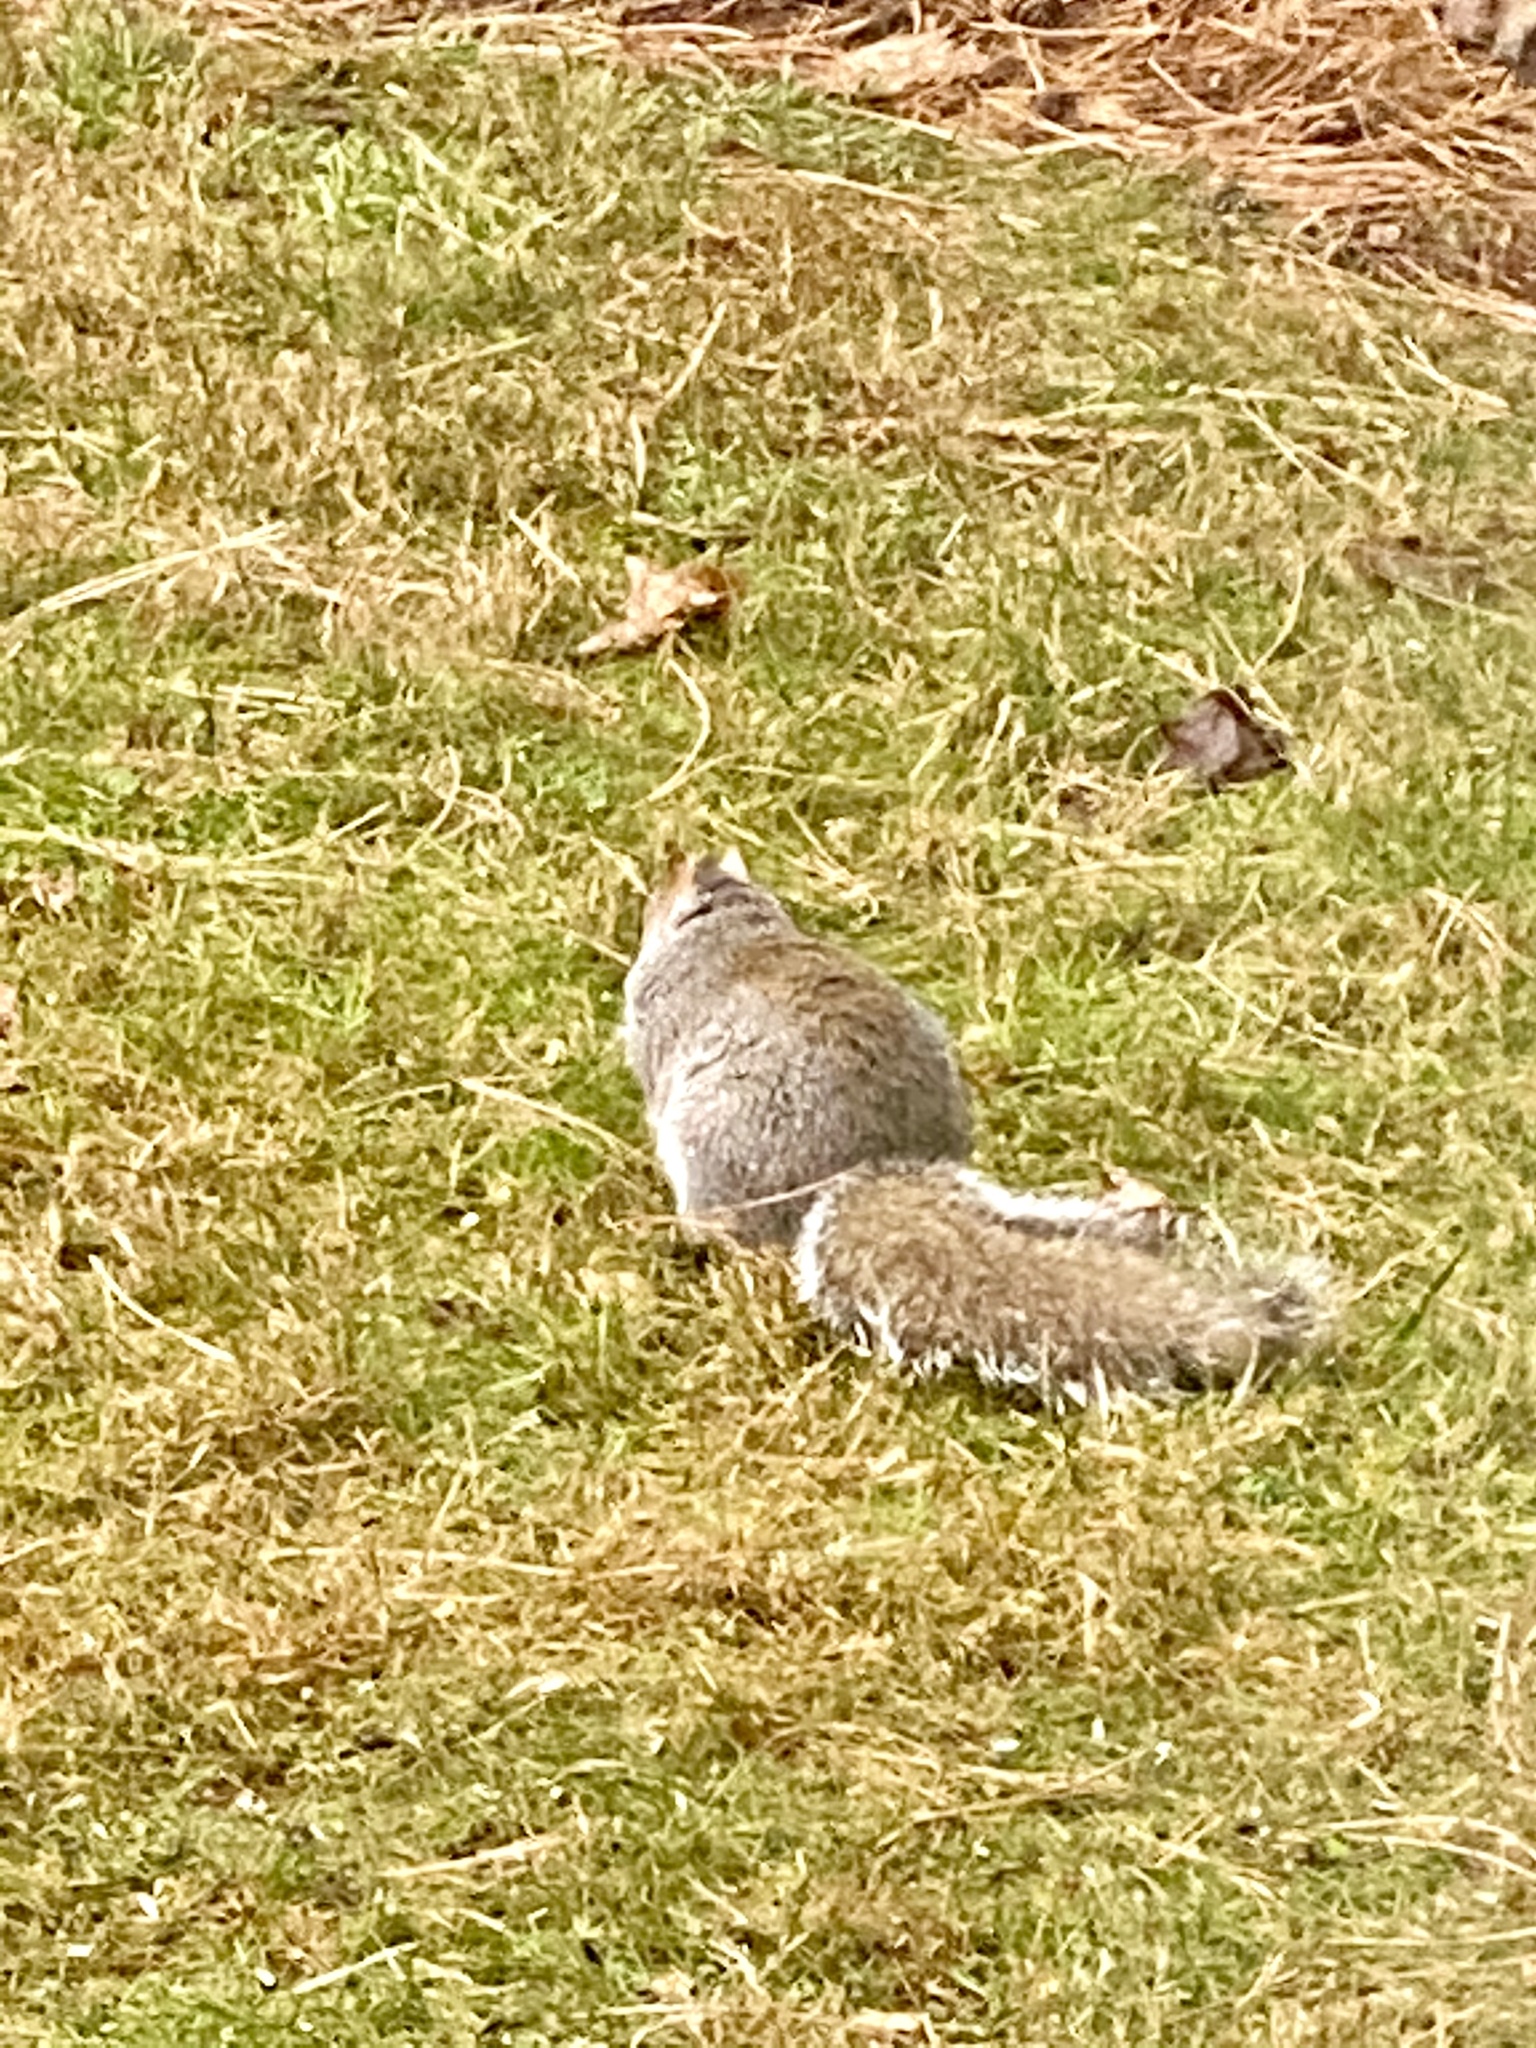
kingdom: Animalia
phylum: Chordata
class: Mammalia
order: Rodentia
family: Sciuridae
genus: Sciurus
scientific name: Sciurus carolinensis
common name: Eastern gray squirrel
